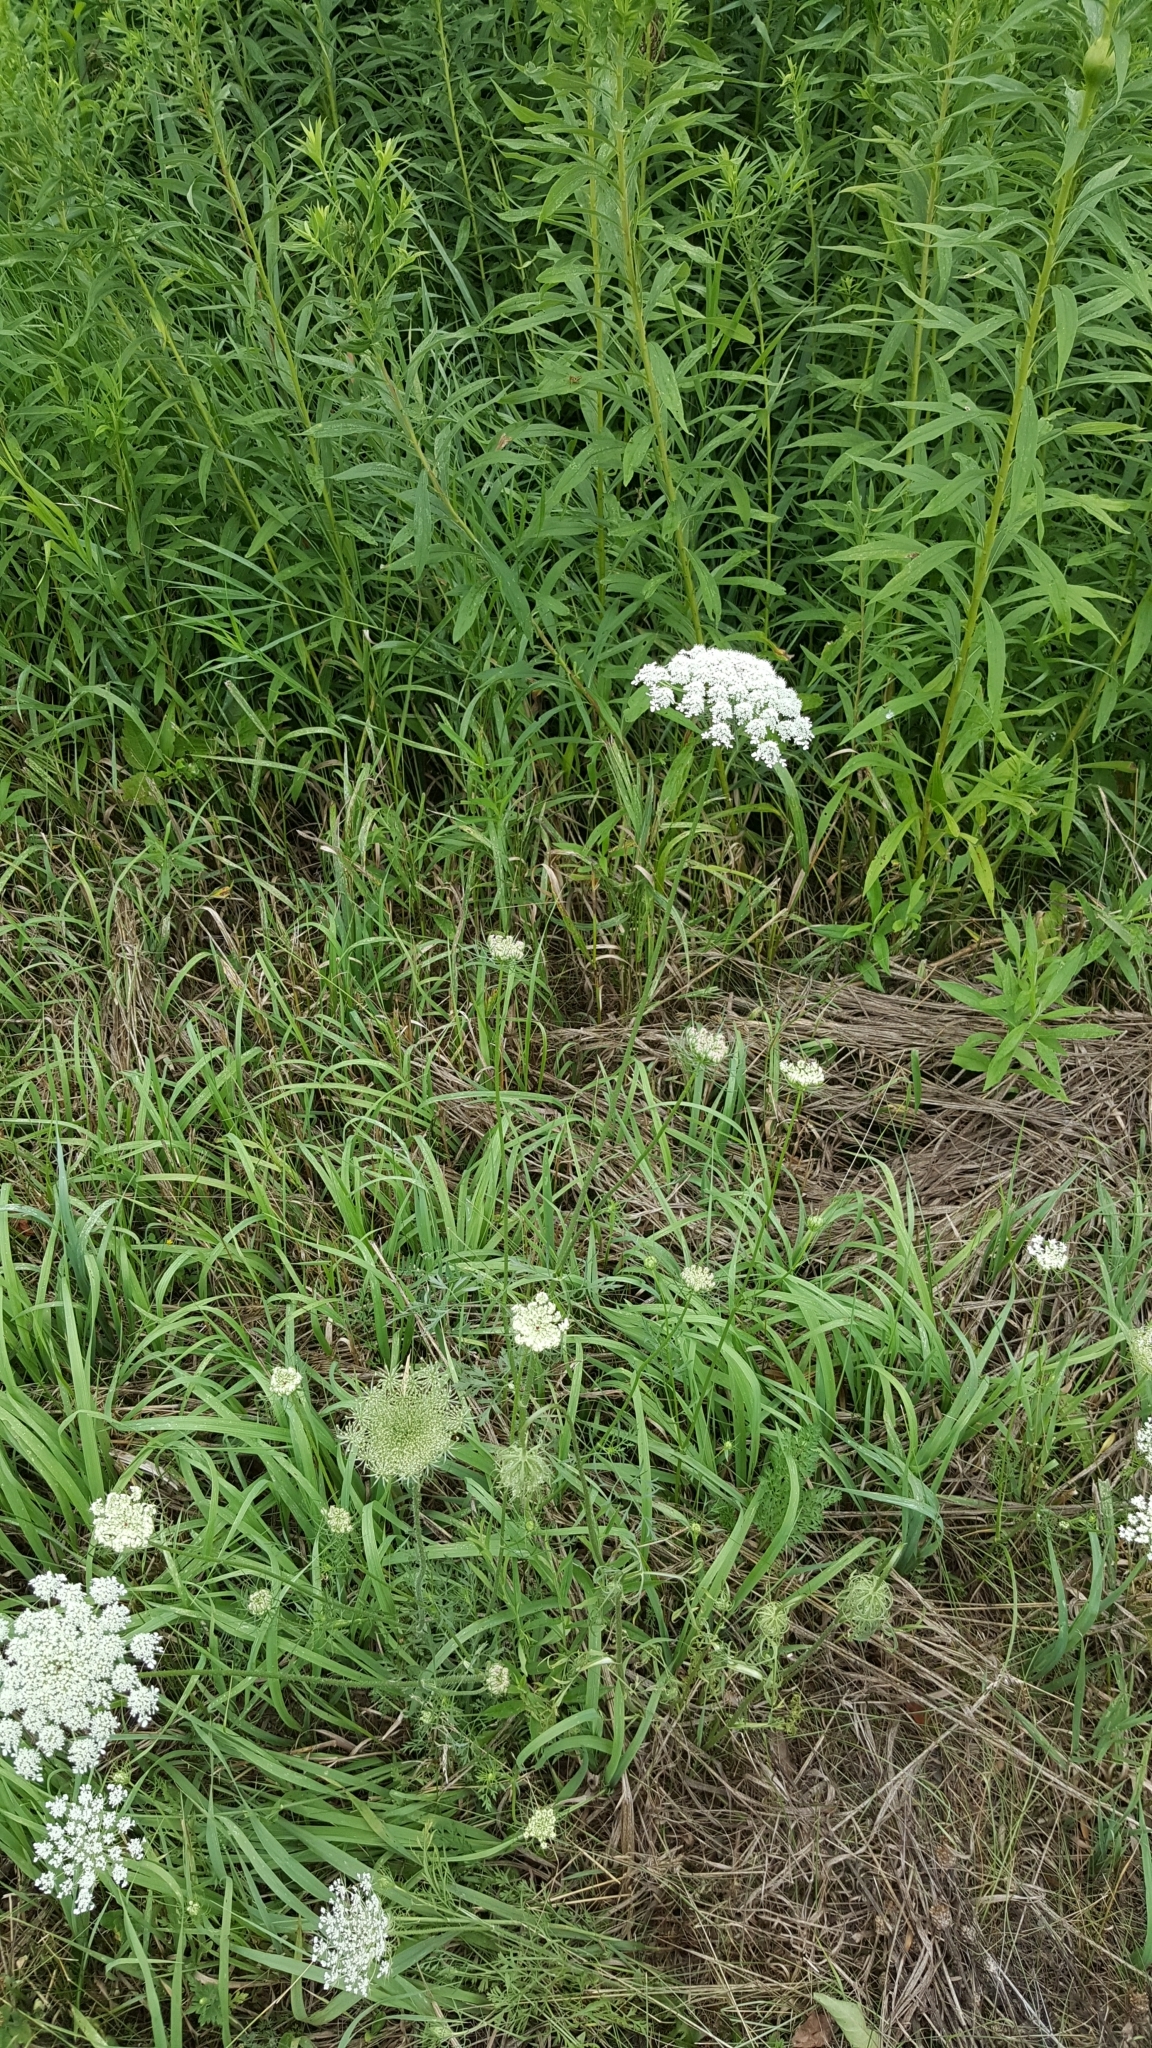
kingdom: Plantae
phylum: Tracheophyta
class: Magnoliopsida
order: Apiales
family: Apiaceae
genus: Daucus
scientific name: Daucus carota
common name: Wild carrot
